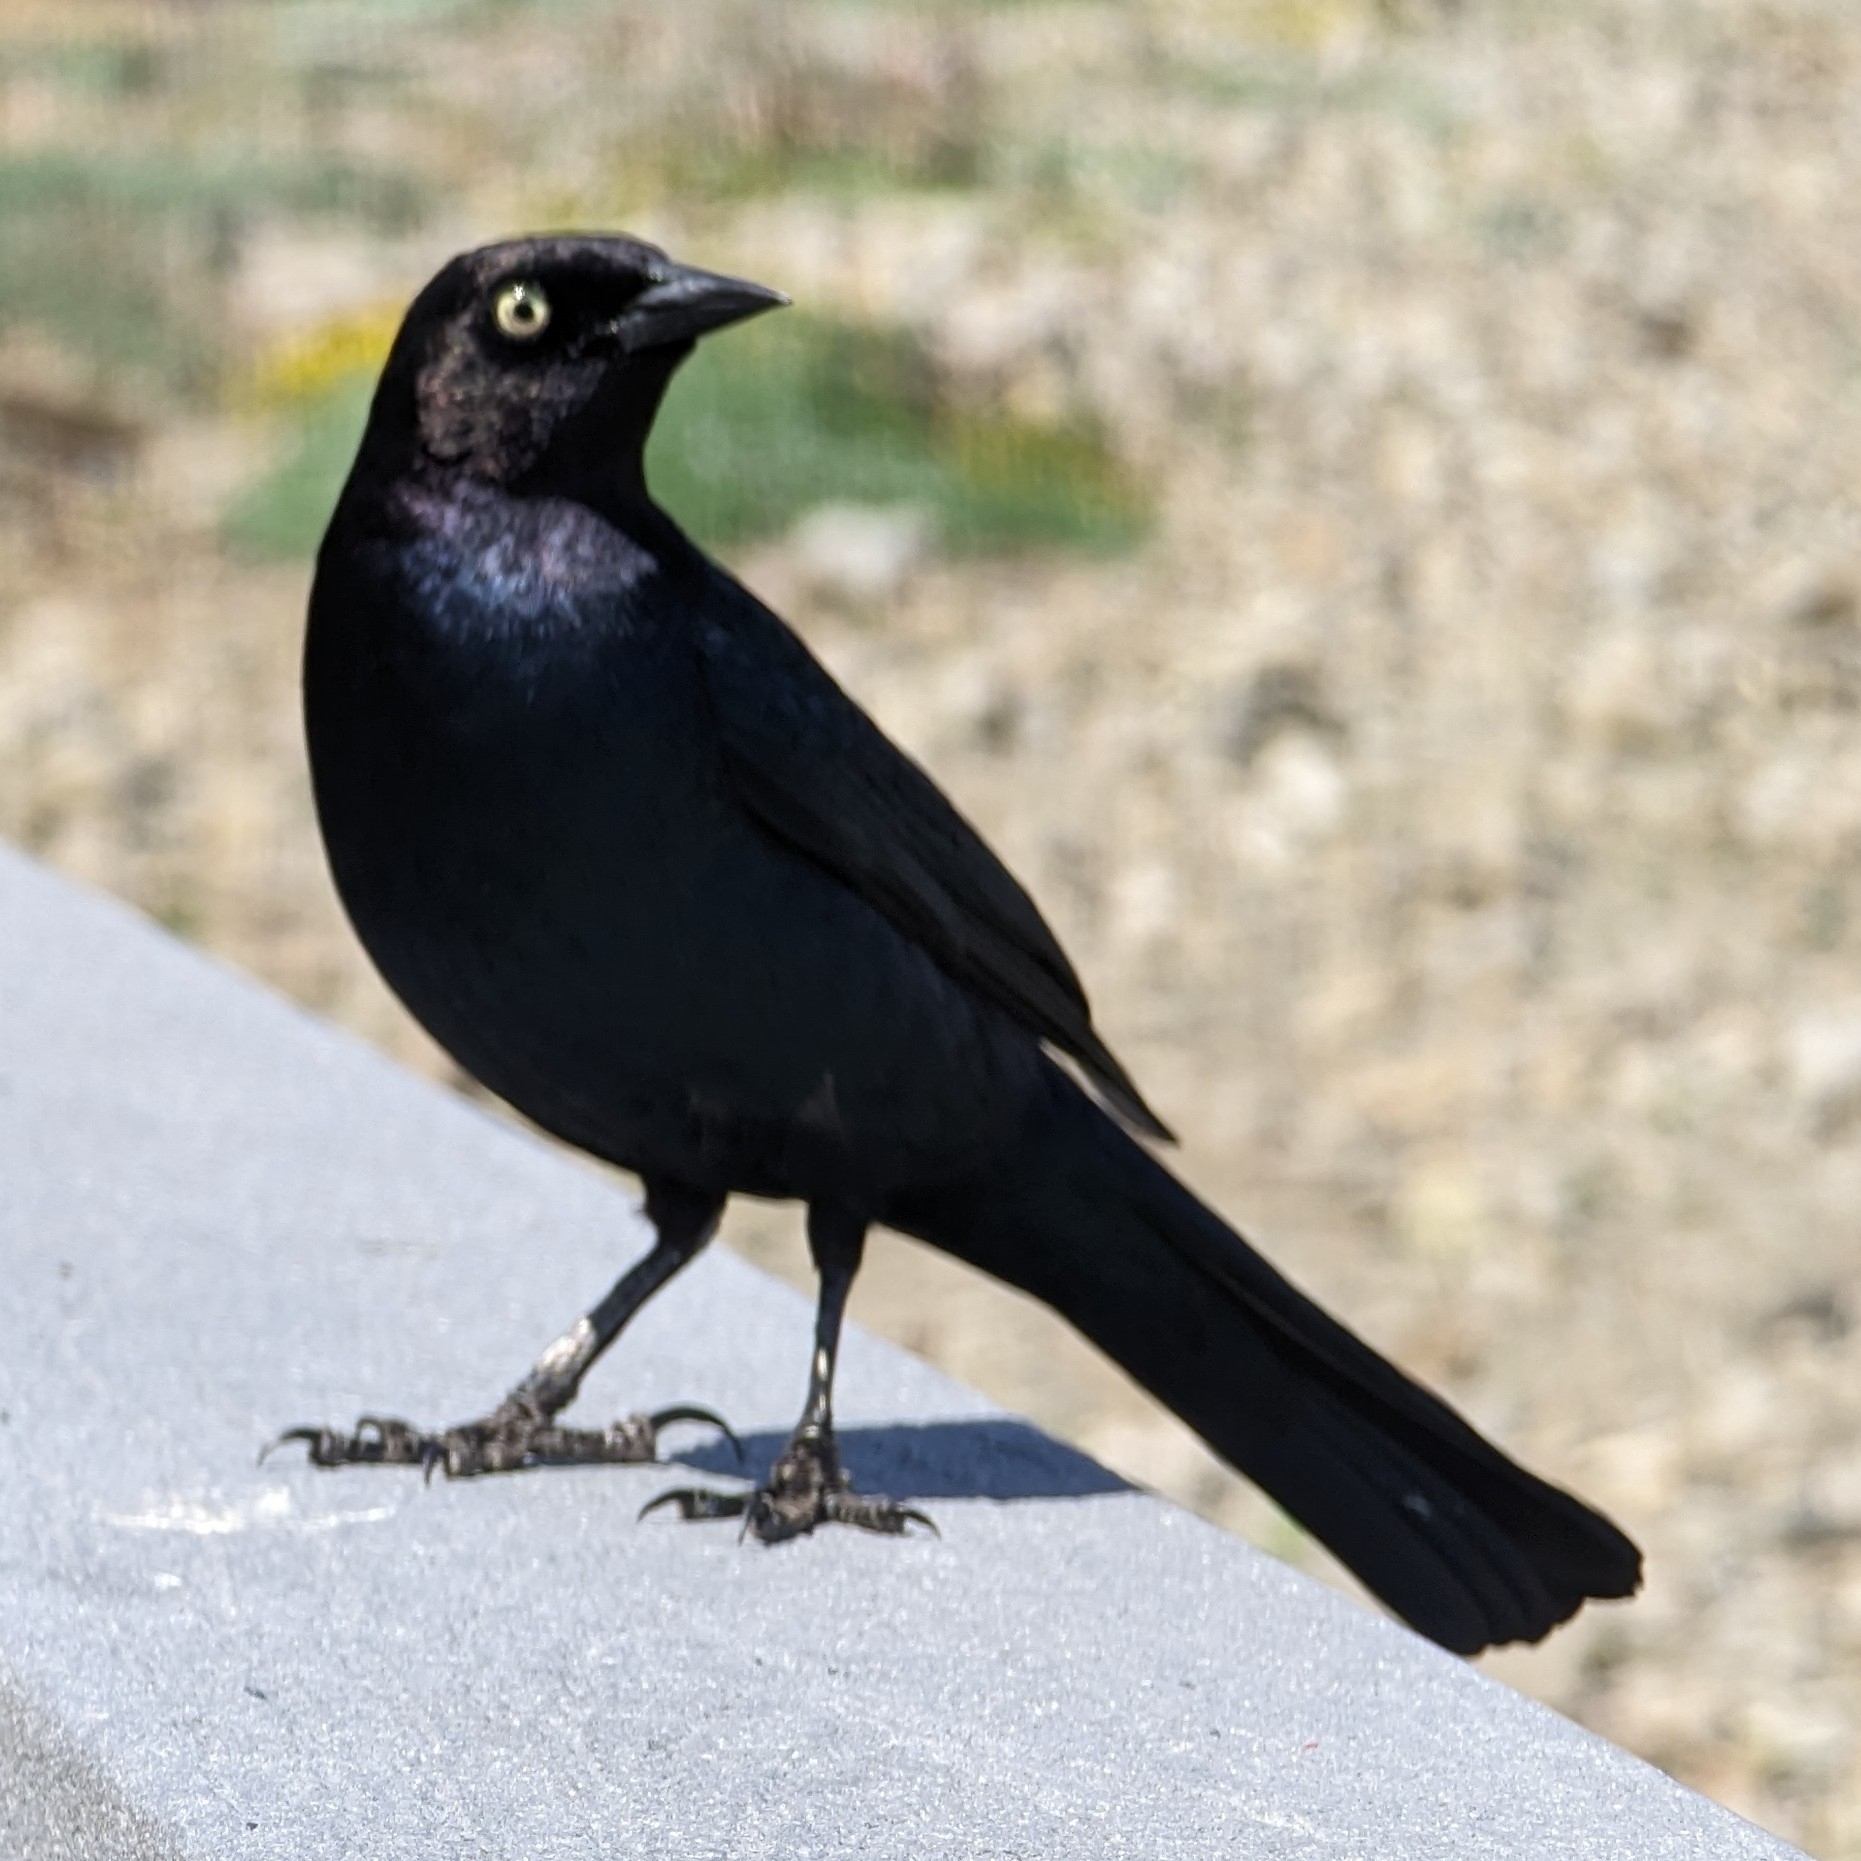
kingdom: Animalia
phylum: Chordata
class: Aves
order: Passeriformes
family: Icteridae
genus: Euphagus
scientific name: Euphagus cyanocephalus
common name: Brewer's blackbird
